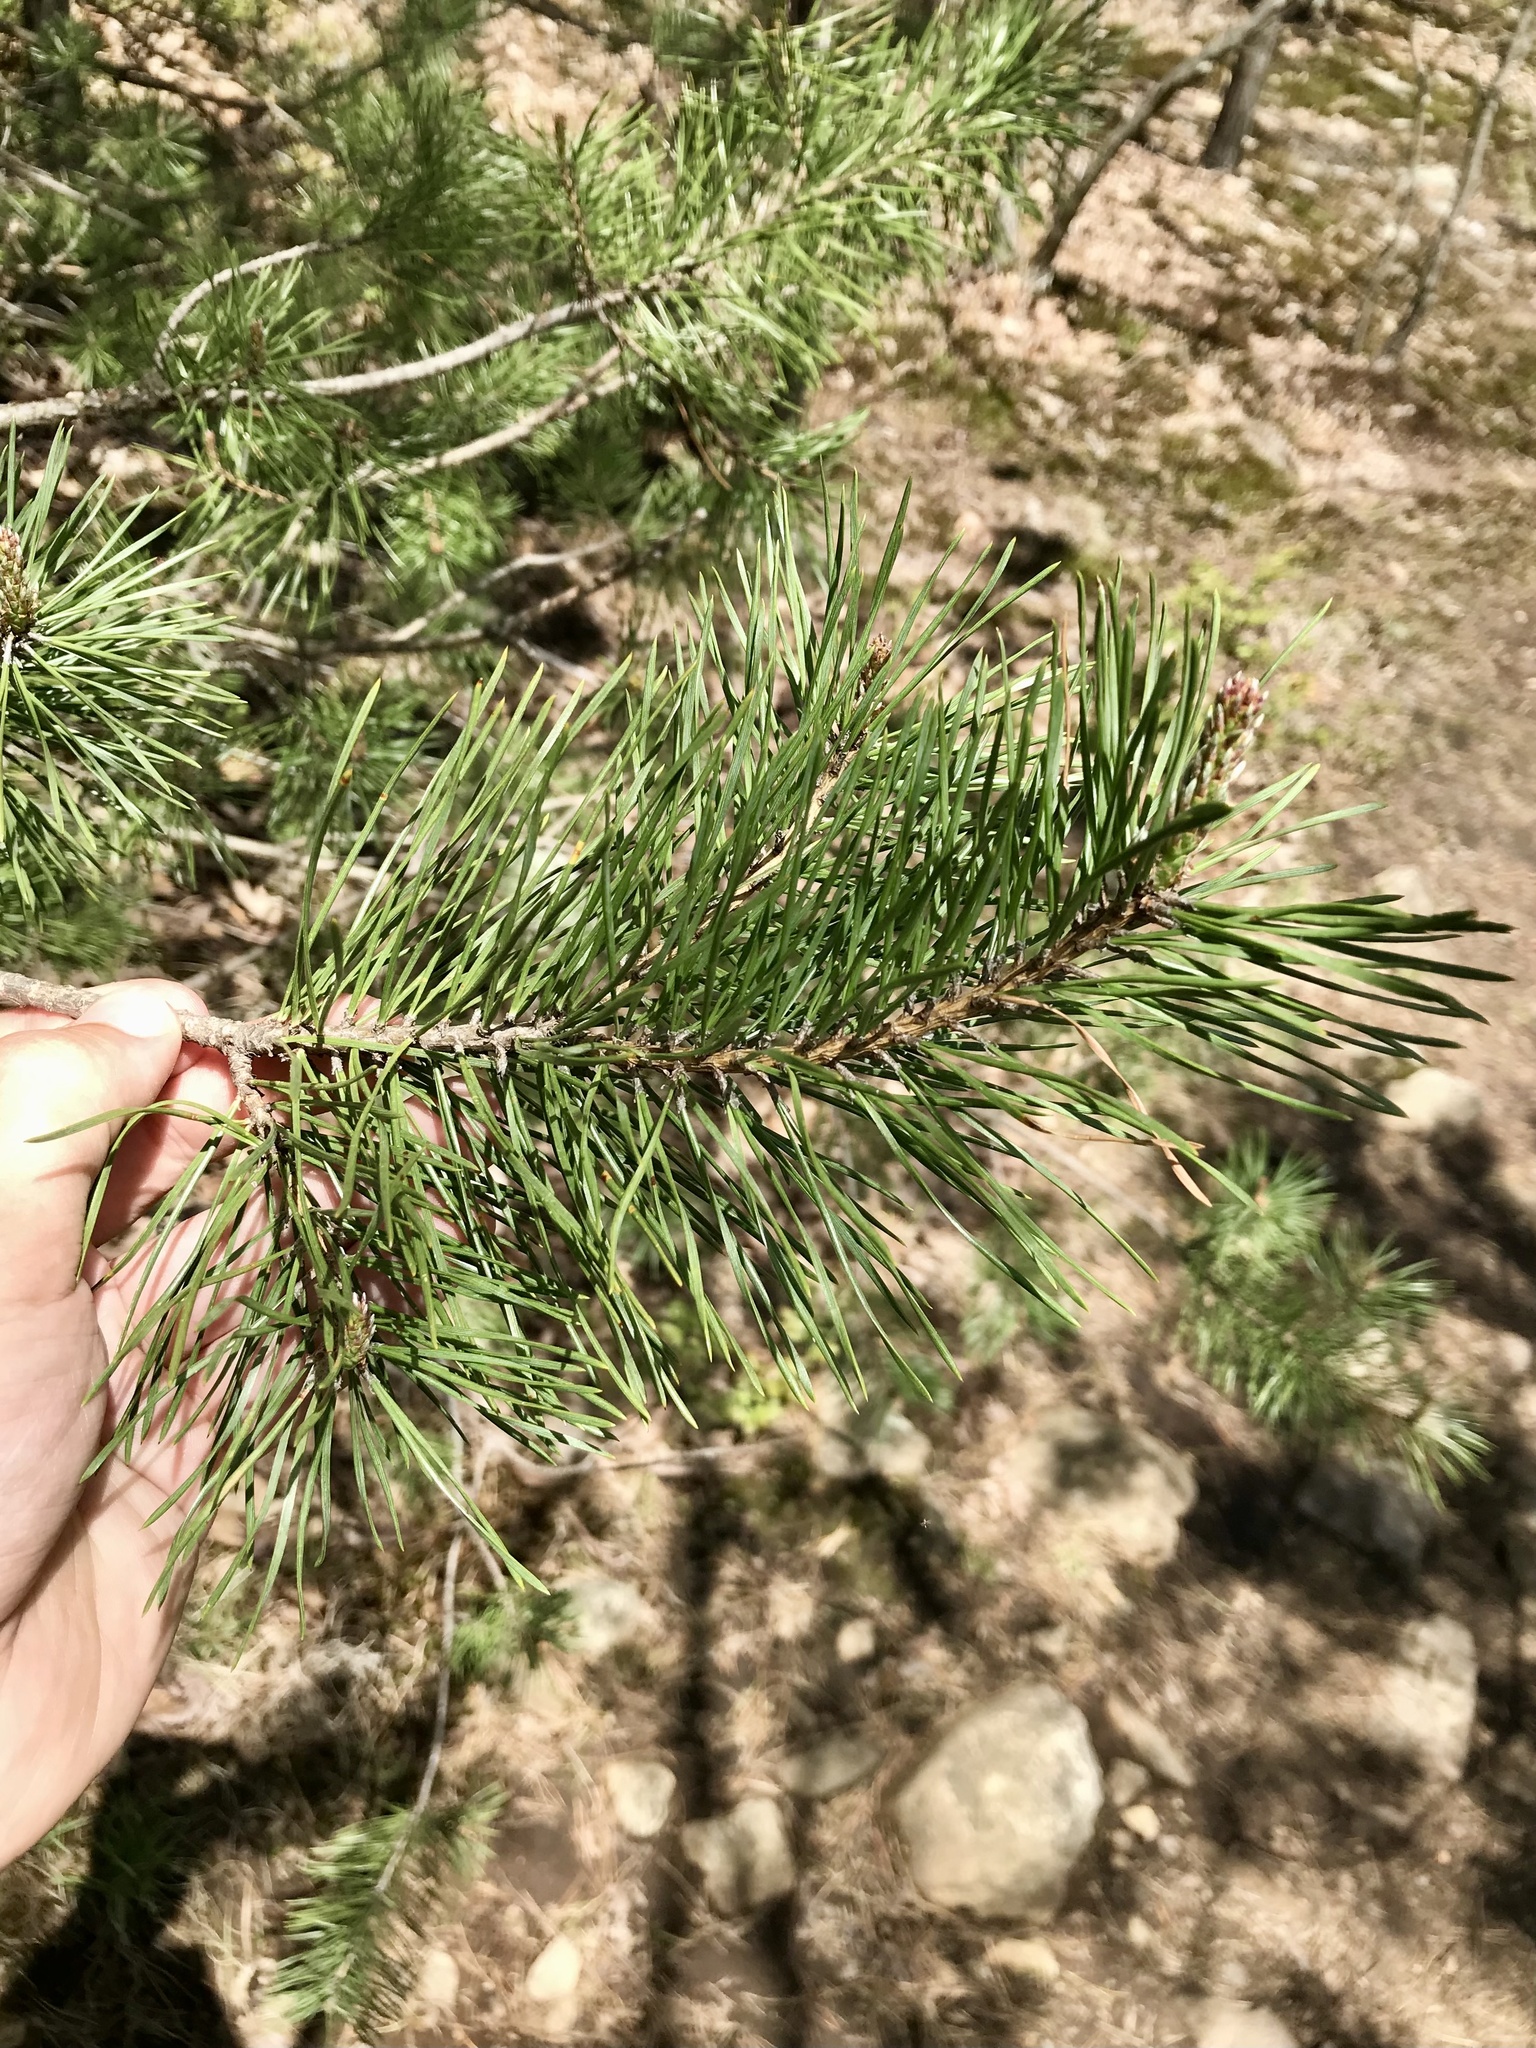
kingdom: Plantae
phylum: Tracheophyta
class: Pinopsida
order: Pinales
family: Pinaceae
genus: Pinus
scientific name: Pinus sylvestris
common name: Scots pine
